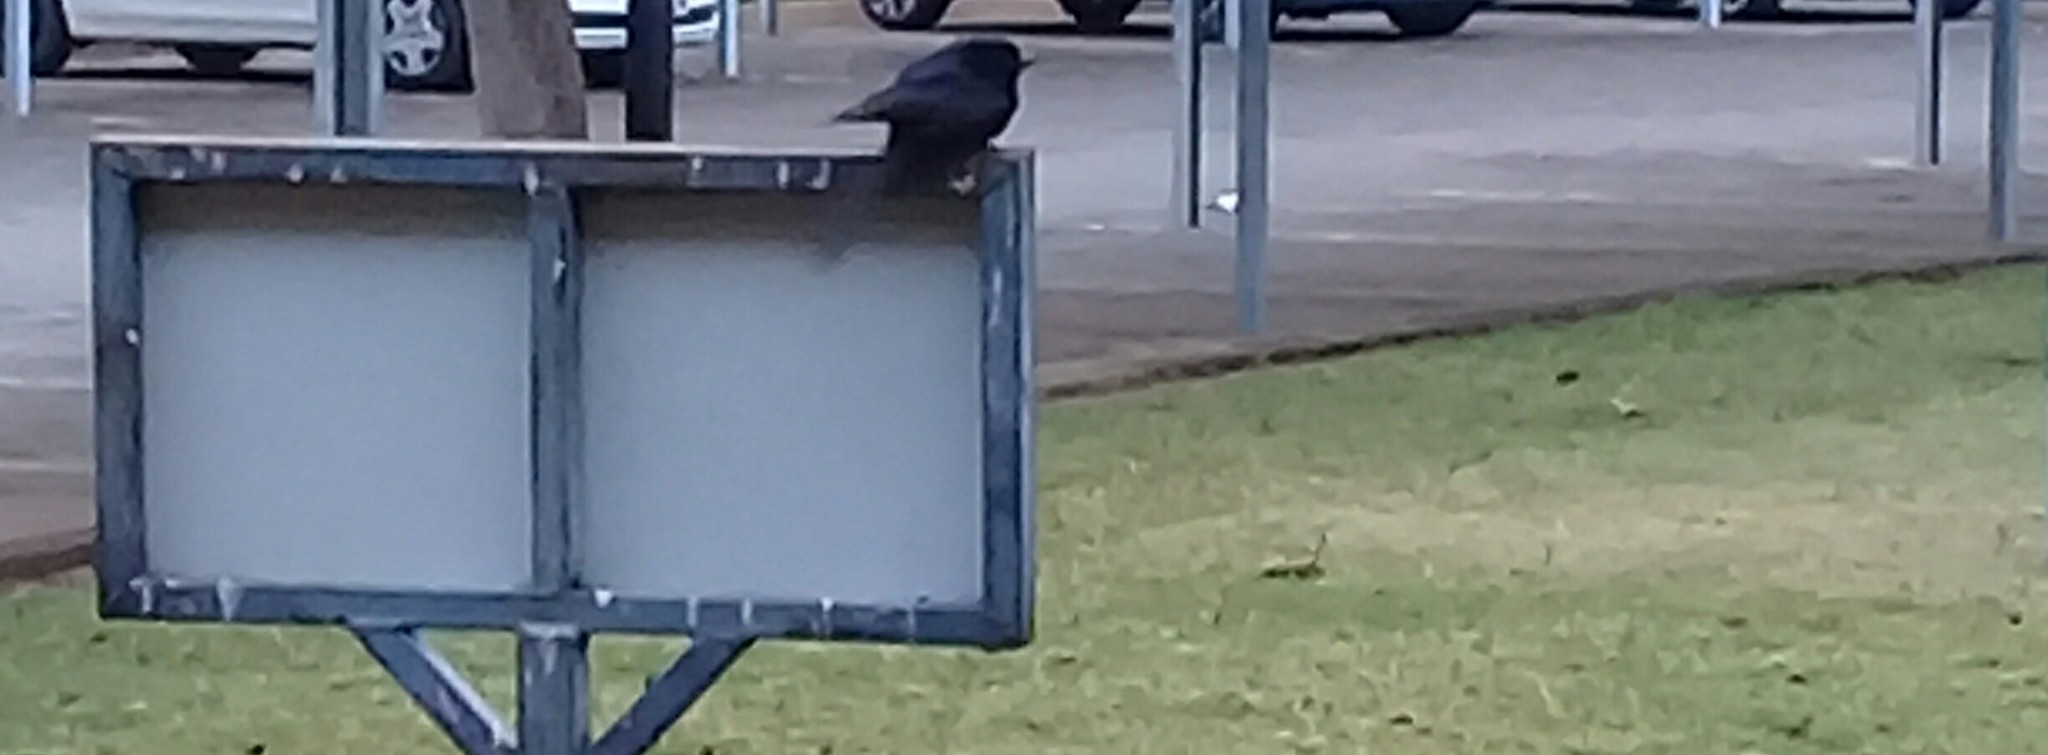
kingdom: Animalia
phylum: Chordata
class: Aves
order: Passeriformes
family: Dicruridae
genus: Dicrurus
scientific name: Dicrurus adsimilis
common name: Fork-tailed drongo
